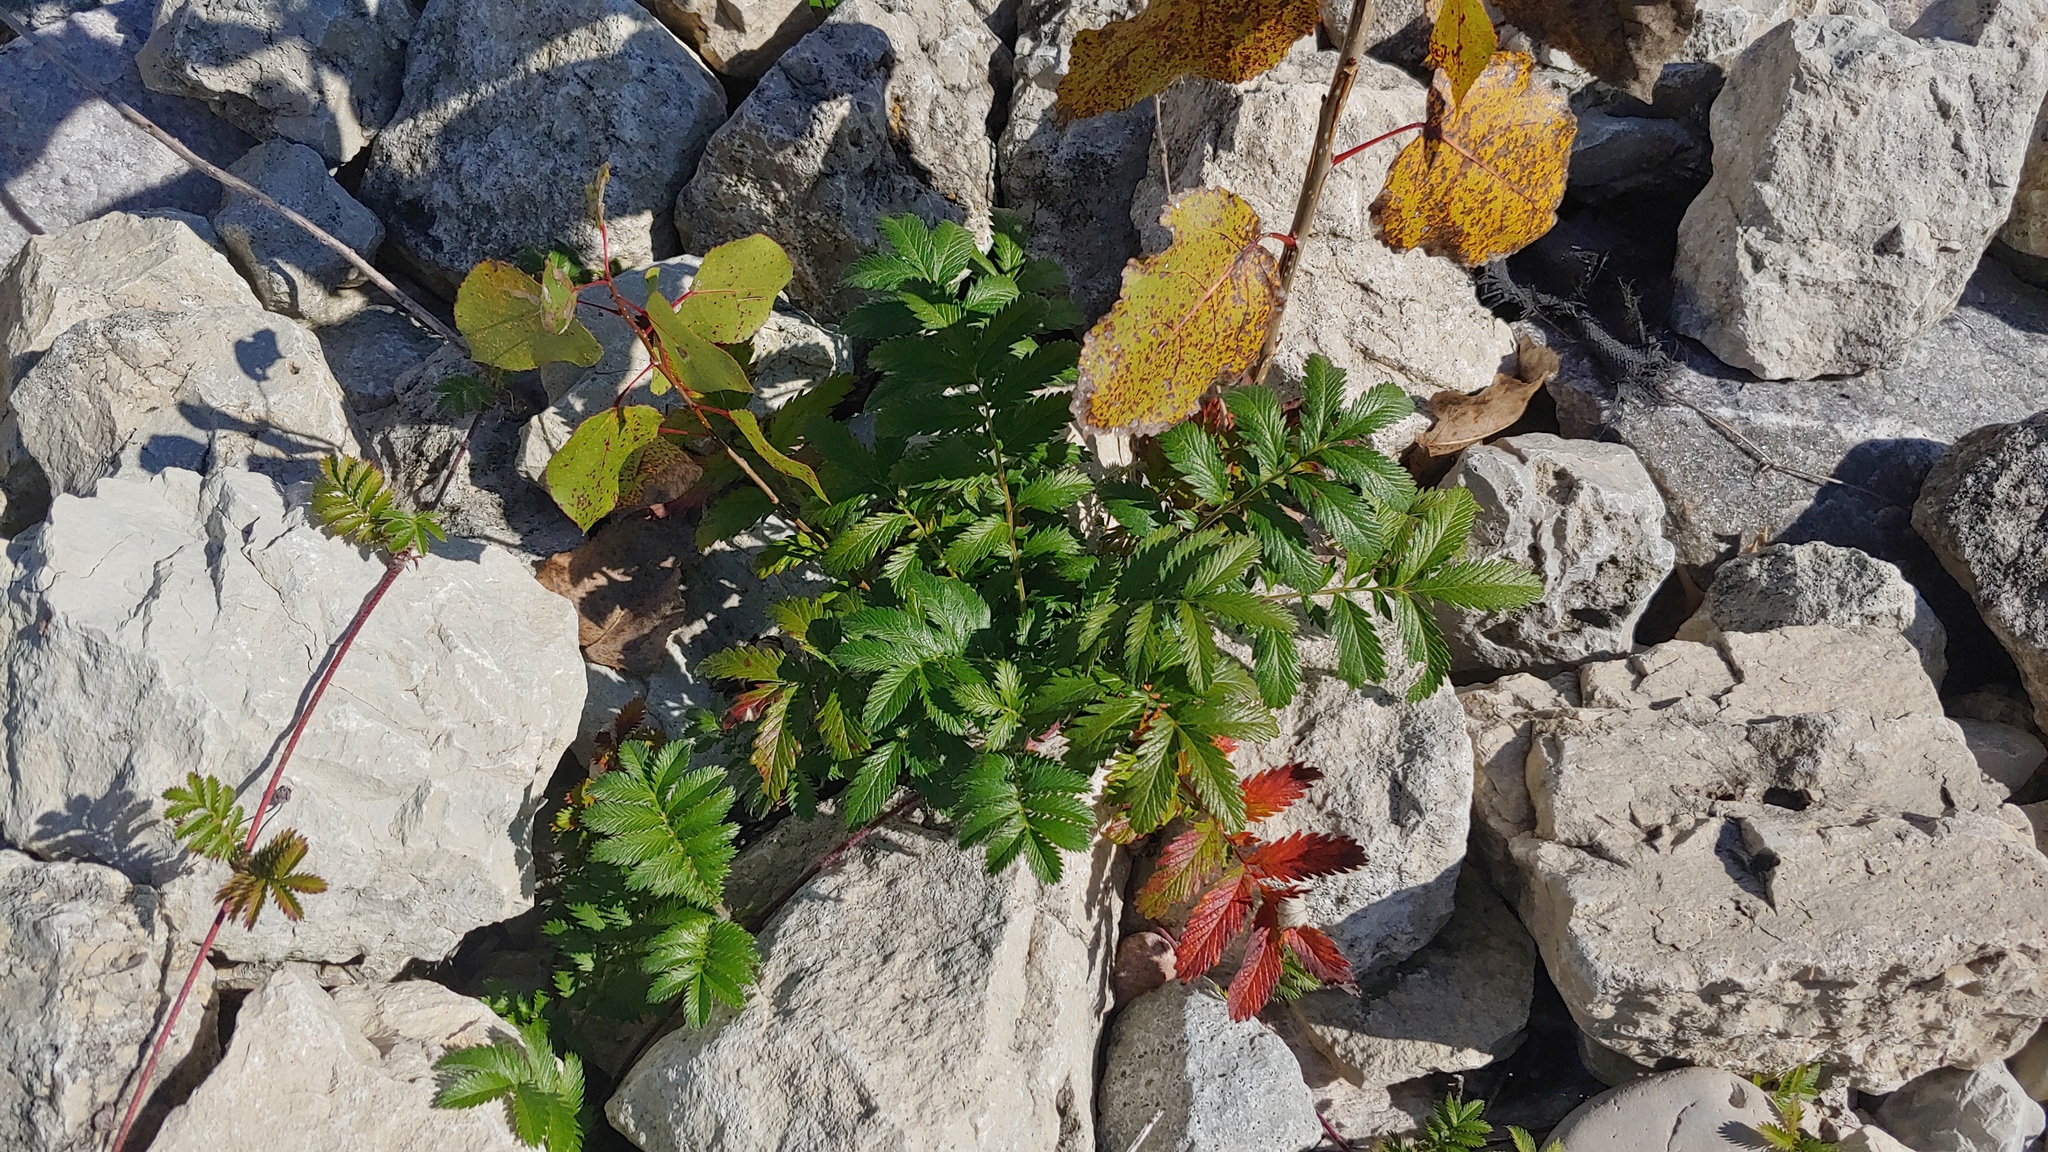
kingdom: Plantae
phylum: Tracheophyta
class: Magnoliopsida
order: Rosales
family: Rosaceae
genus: Argentina
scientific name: Argentina anserina
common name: Common silverweed
